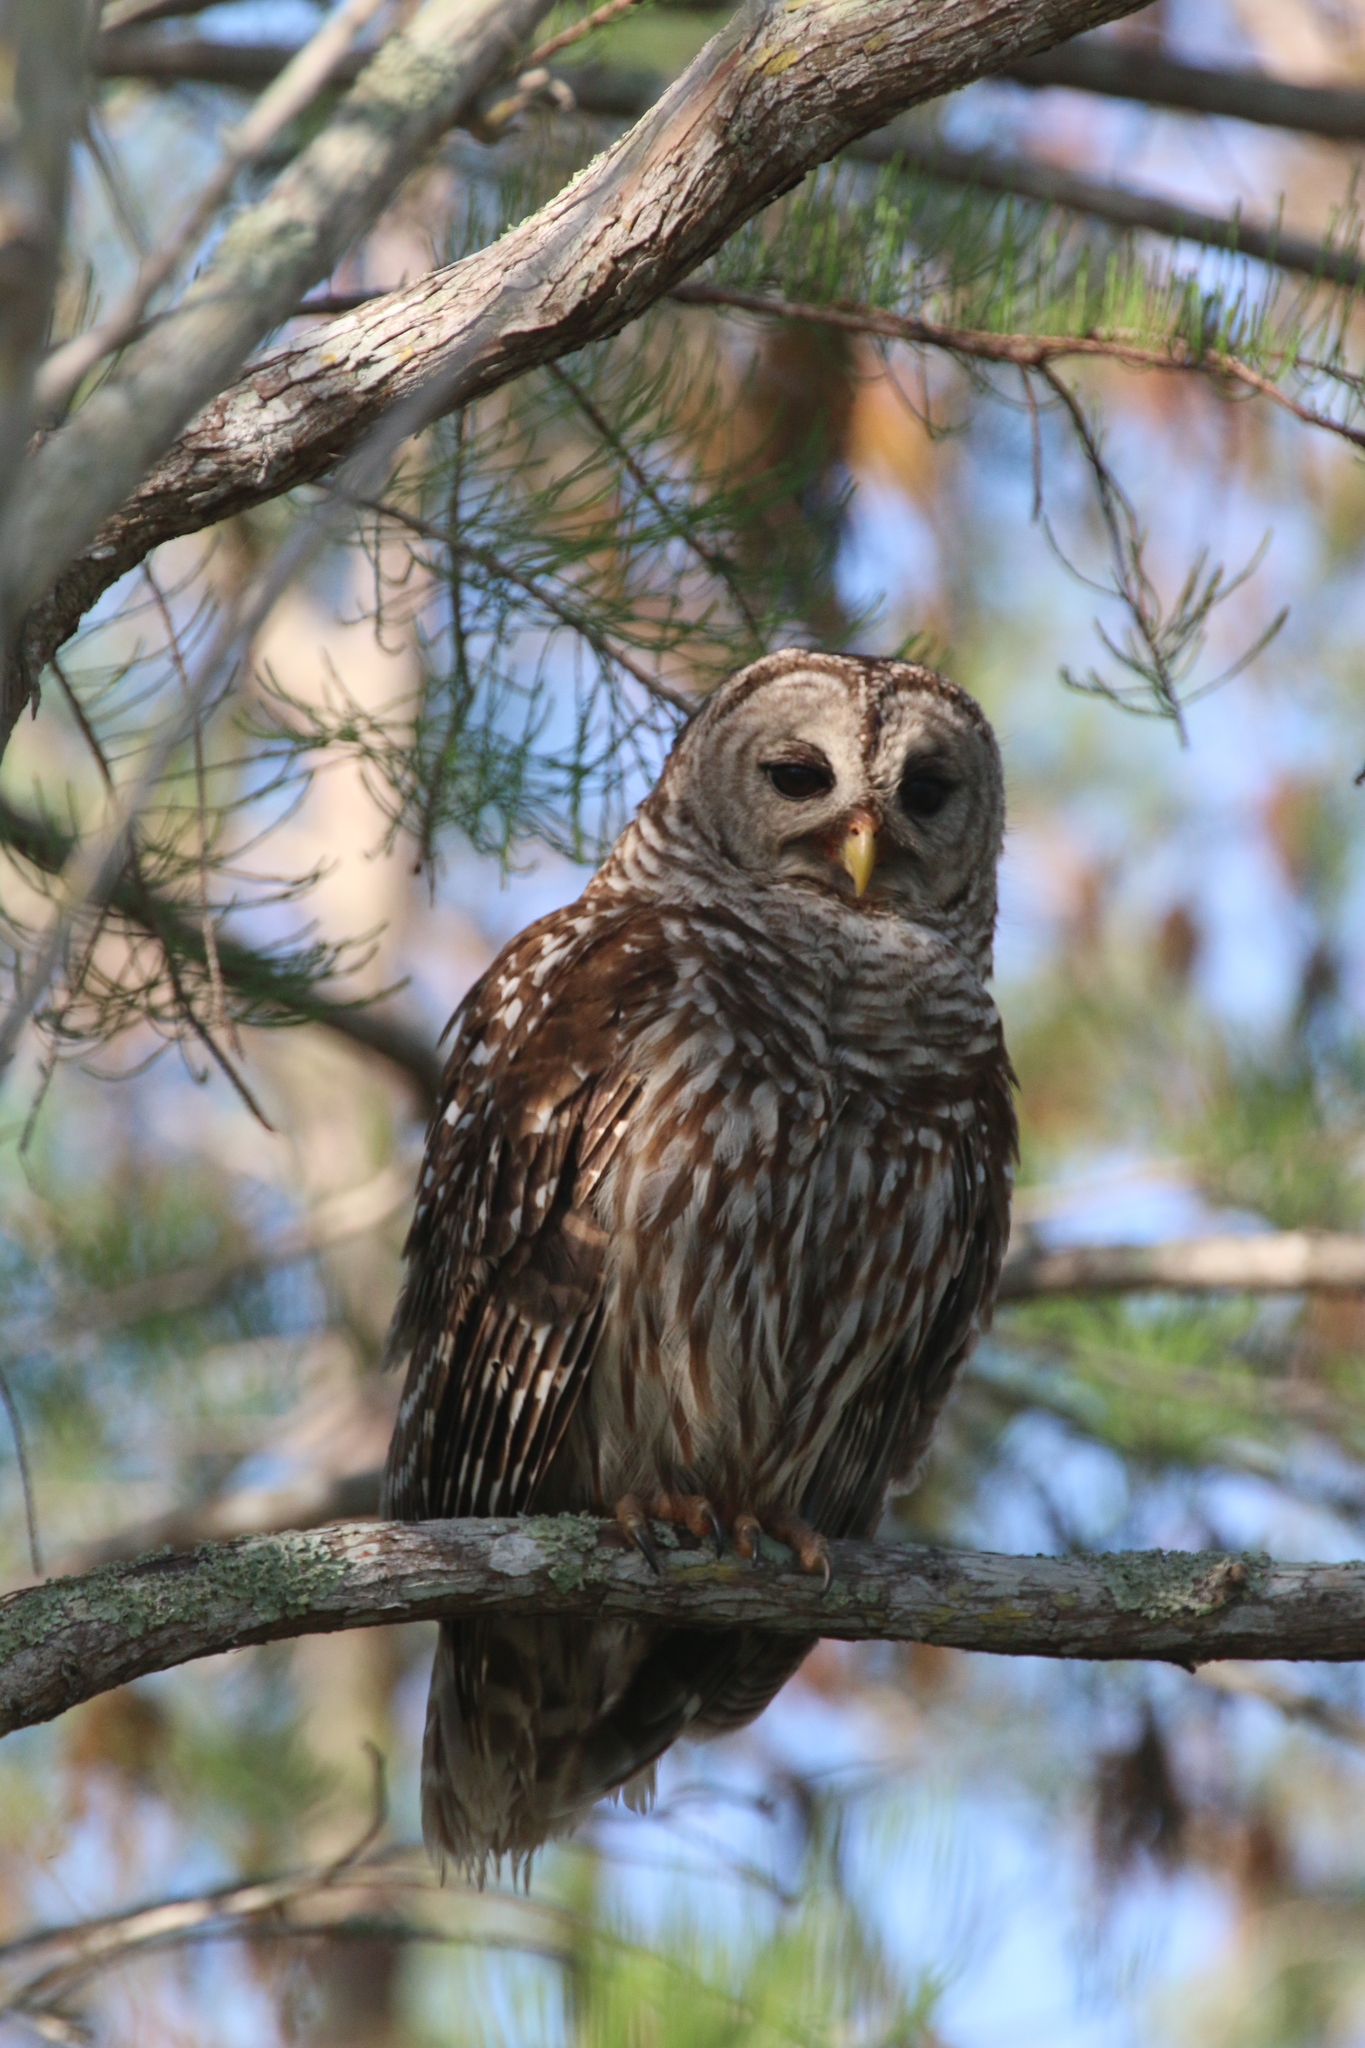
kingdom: Animalia
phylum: Chordata
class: Aves
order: Strigiformes
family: Strigidae
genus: Strix
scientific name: Strix varia
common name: Barred owl
